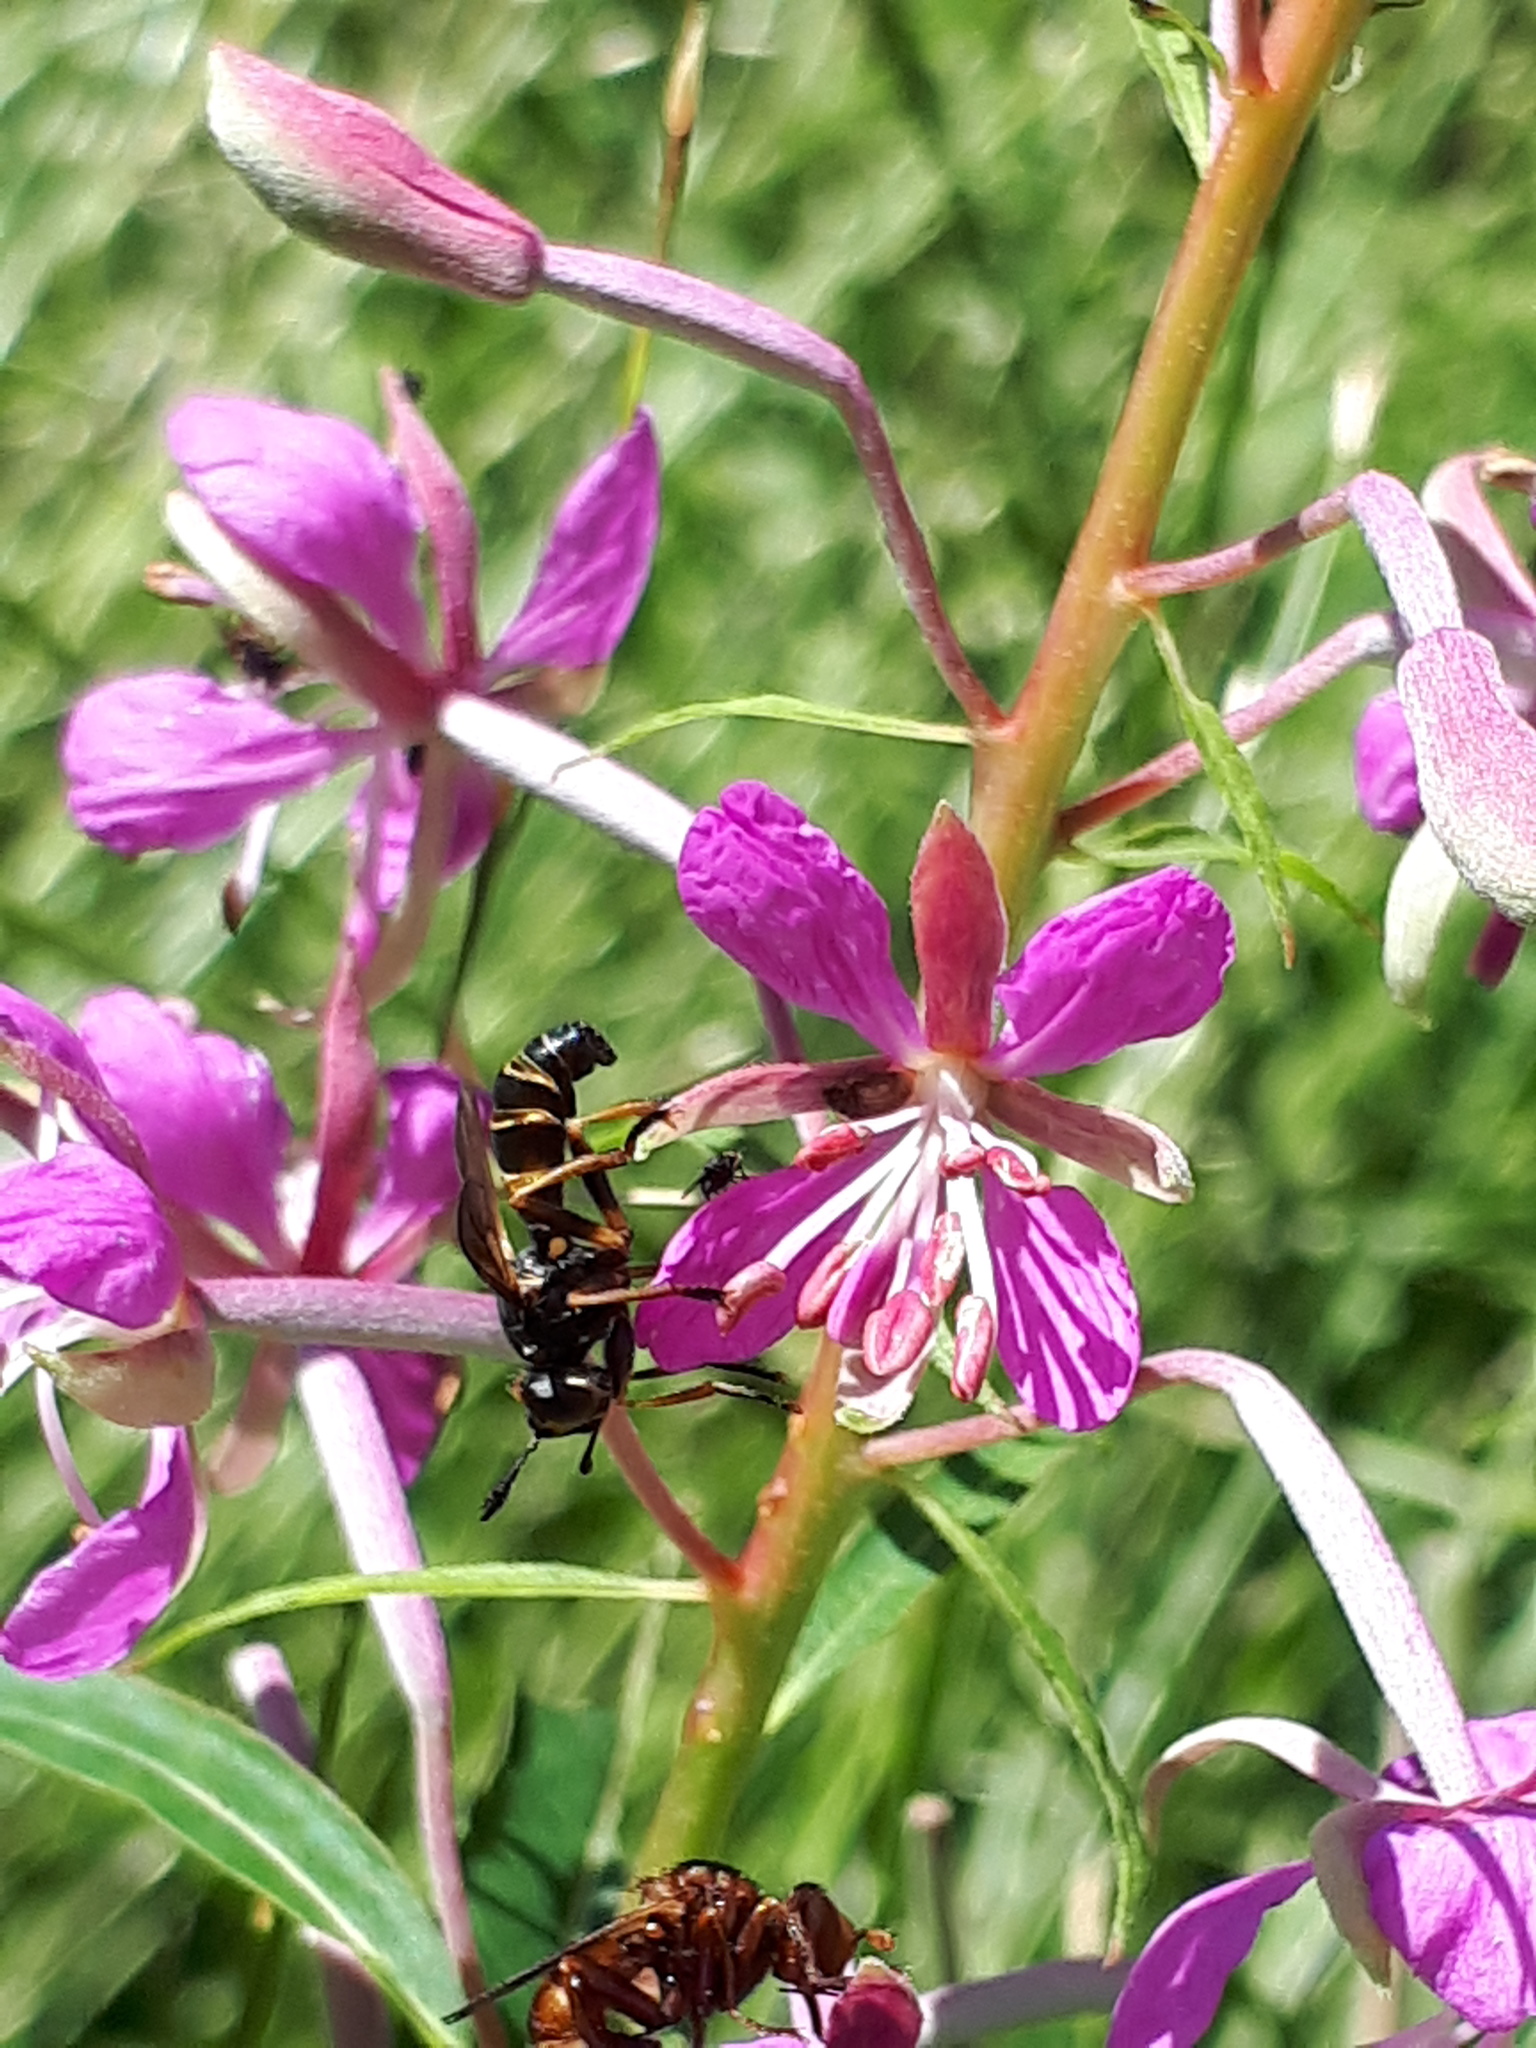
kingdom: Animalia
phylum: Arthropoda
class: Insecta
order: Diptera
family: Conopidae
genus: Conops
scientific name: Conops flavipes
